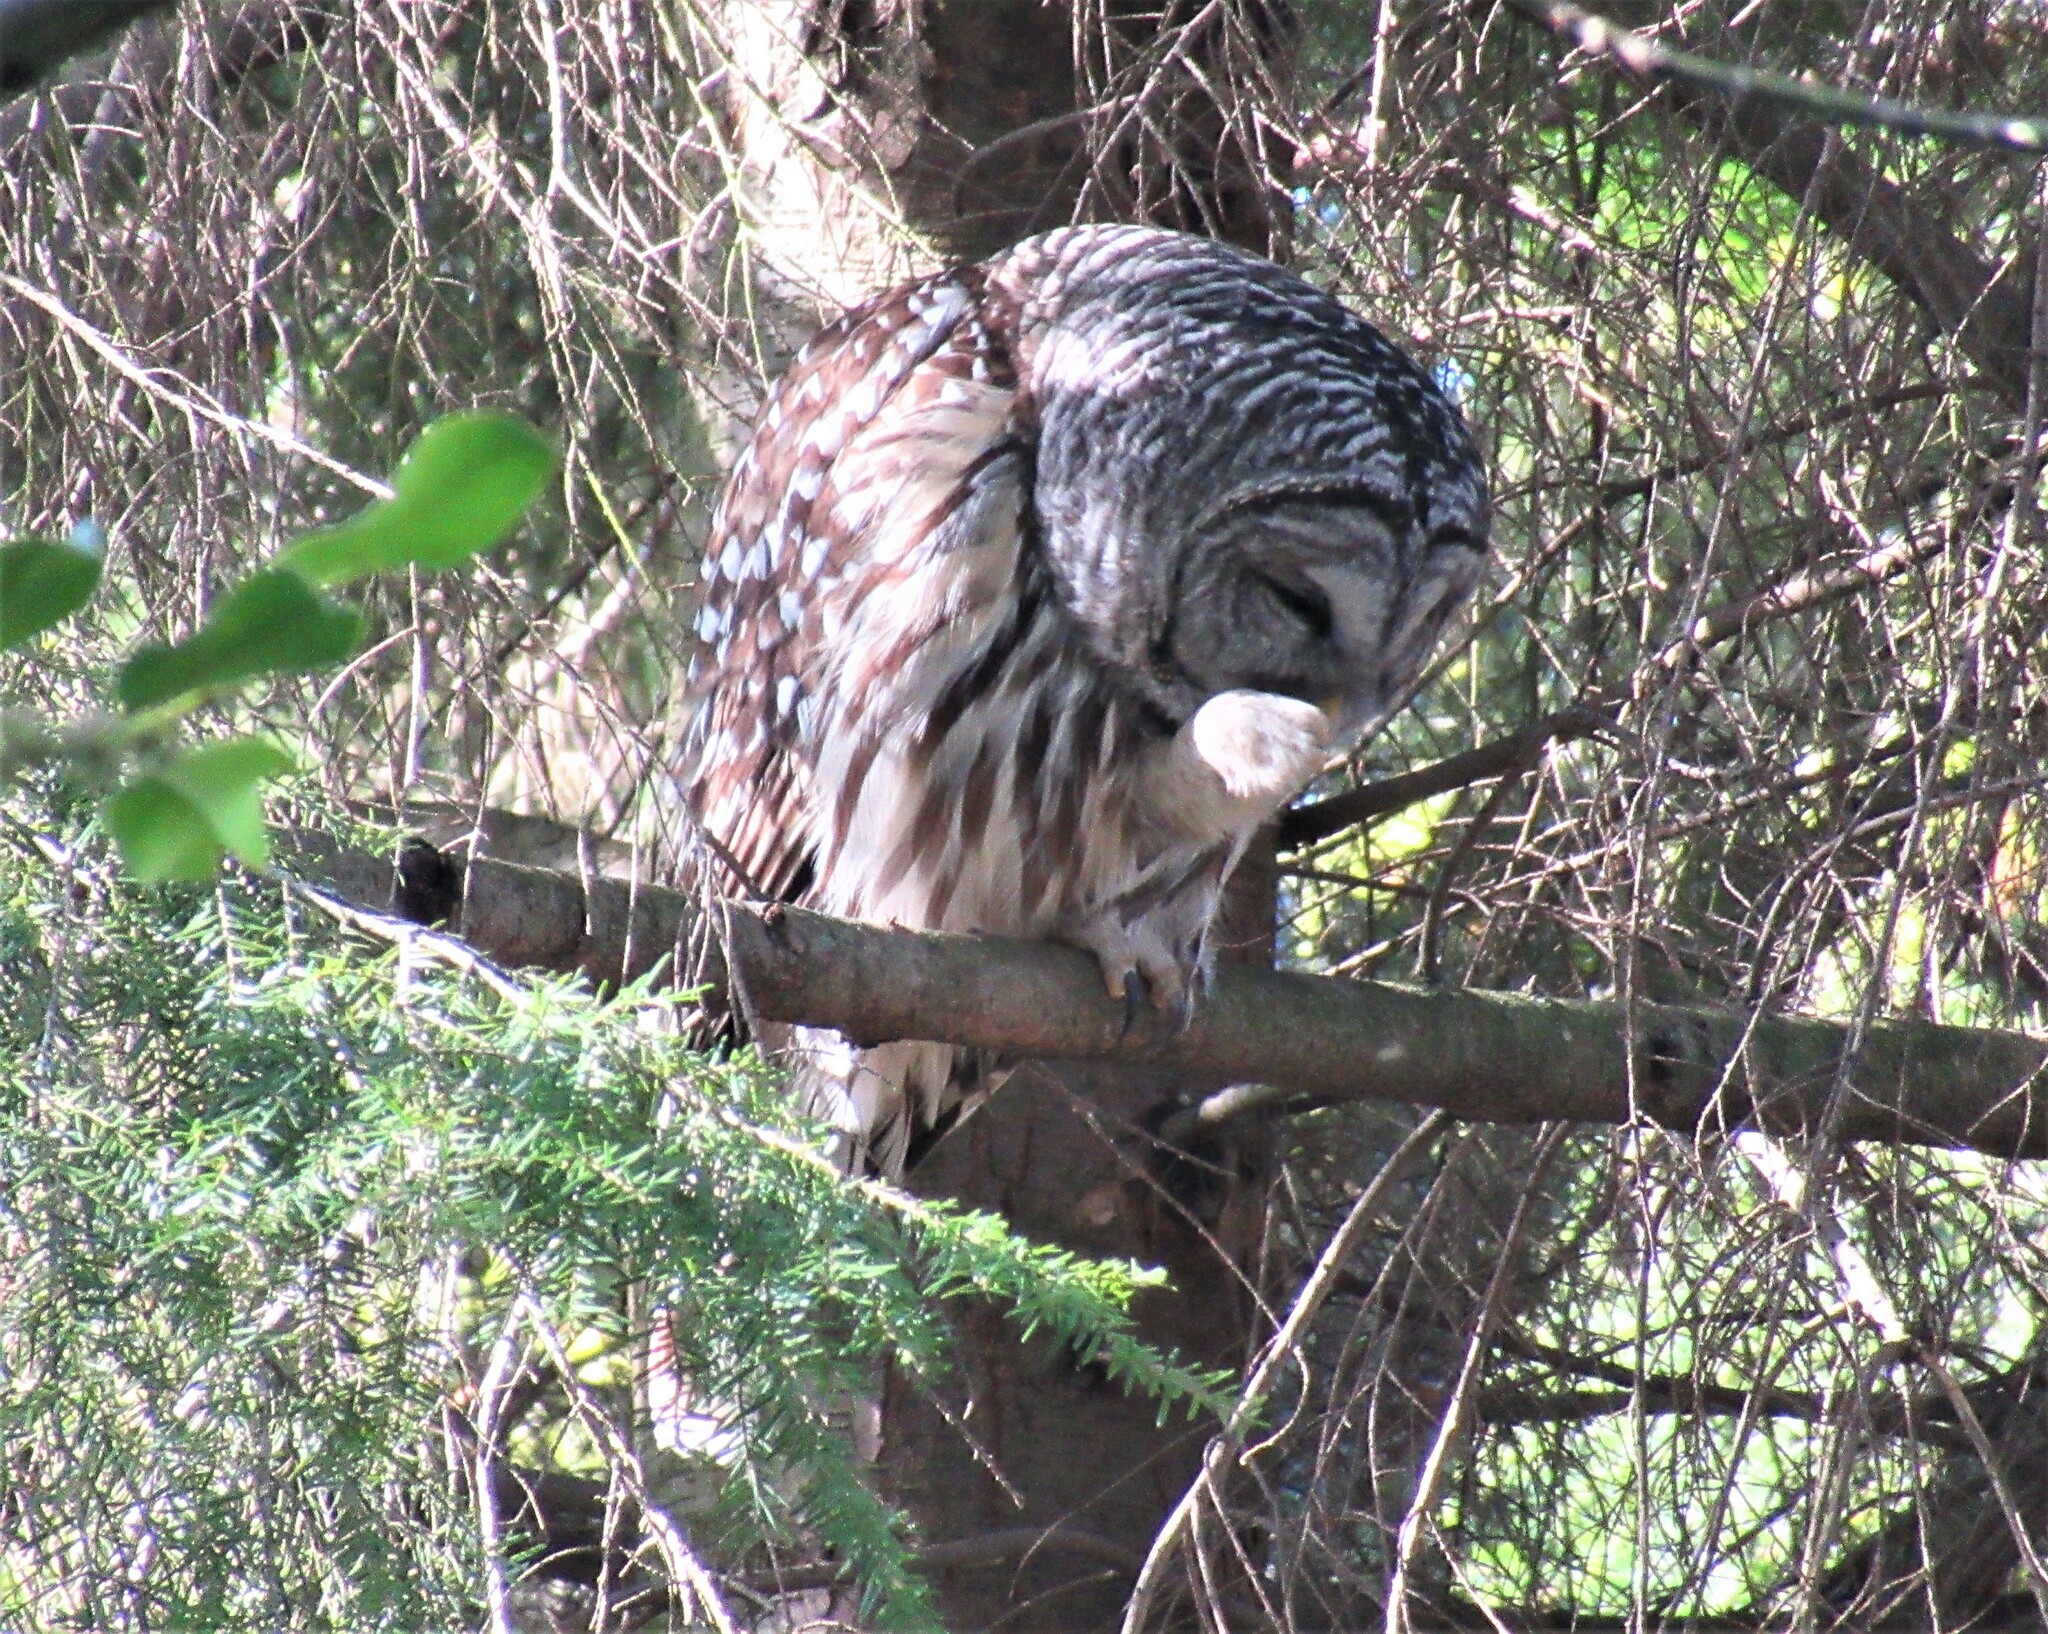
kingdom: Animalia
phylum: Chordata
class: Aves
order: Strigiformes
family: Strigidae
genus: Strix
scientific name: Strix varia
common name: Barred owl
